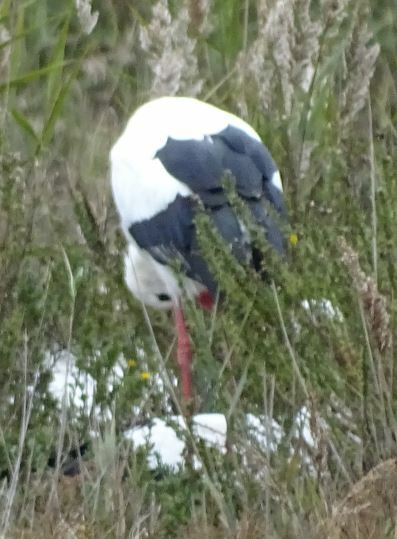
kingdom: Animalia
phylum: Chordata
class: Aves
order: Ciconiiformes
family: Ciconiidae
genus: Ciconia
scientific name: Ciconia ciconia
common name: White stork
